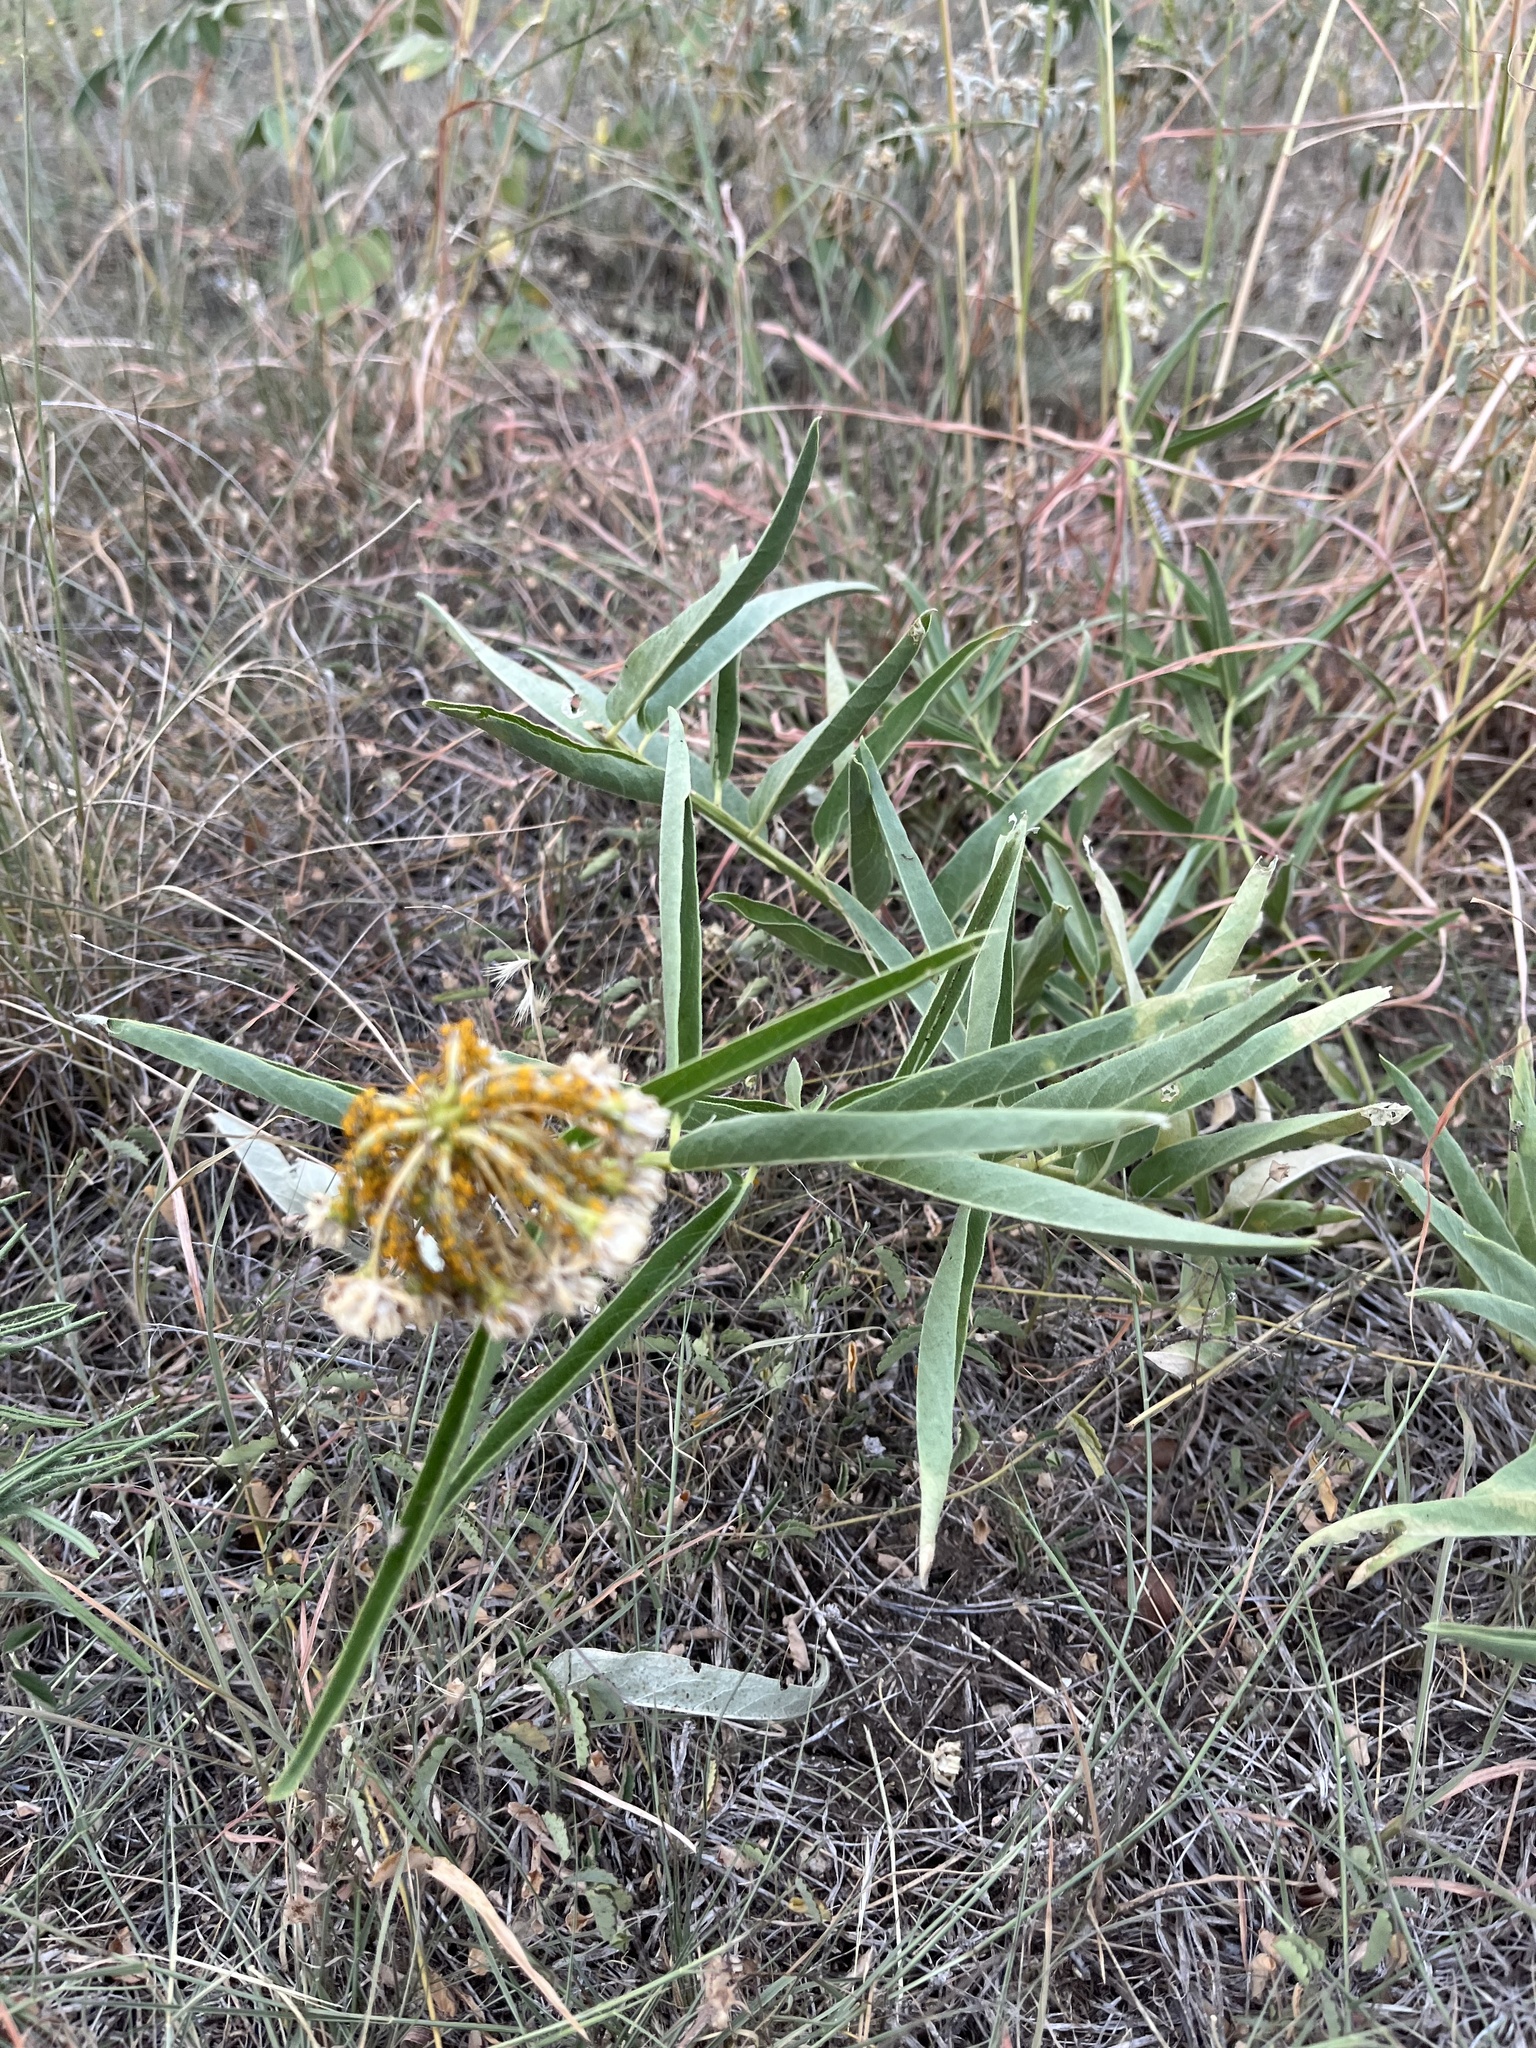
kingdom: Plantae
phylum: Tracheophyta
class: Magnoliopsida
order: Gentianales
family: Apocynaceae
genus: Asclepias
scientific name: Asclepias asperula
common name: Antelope horns
